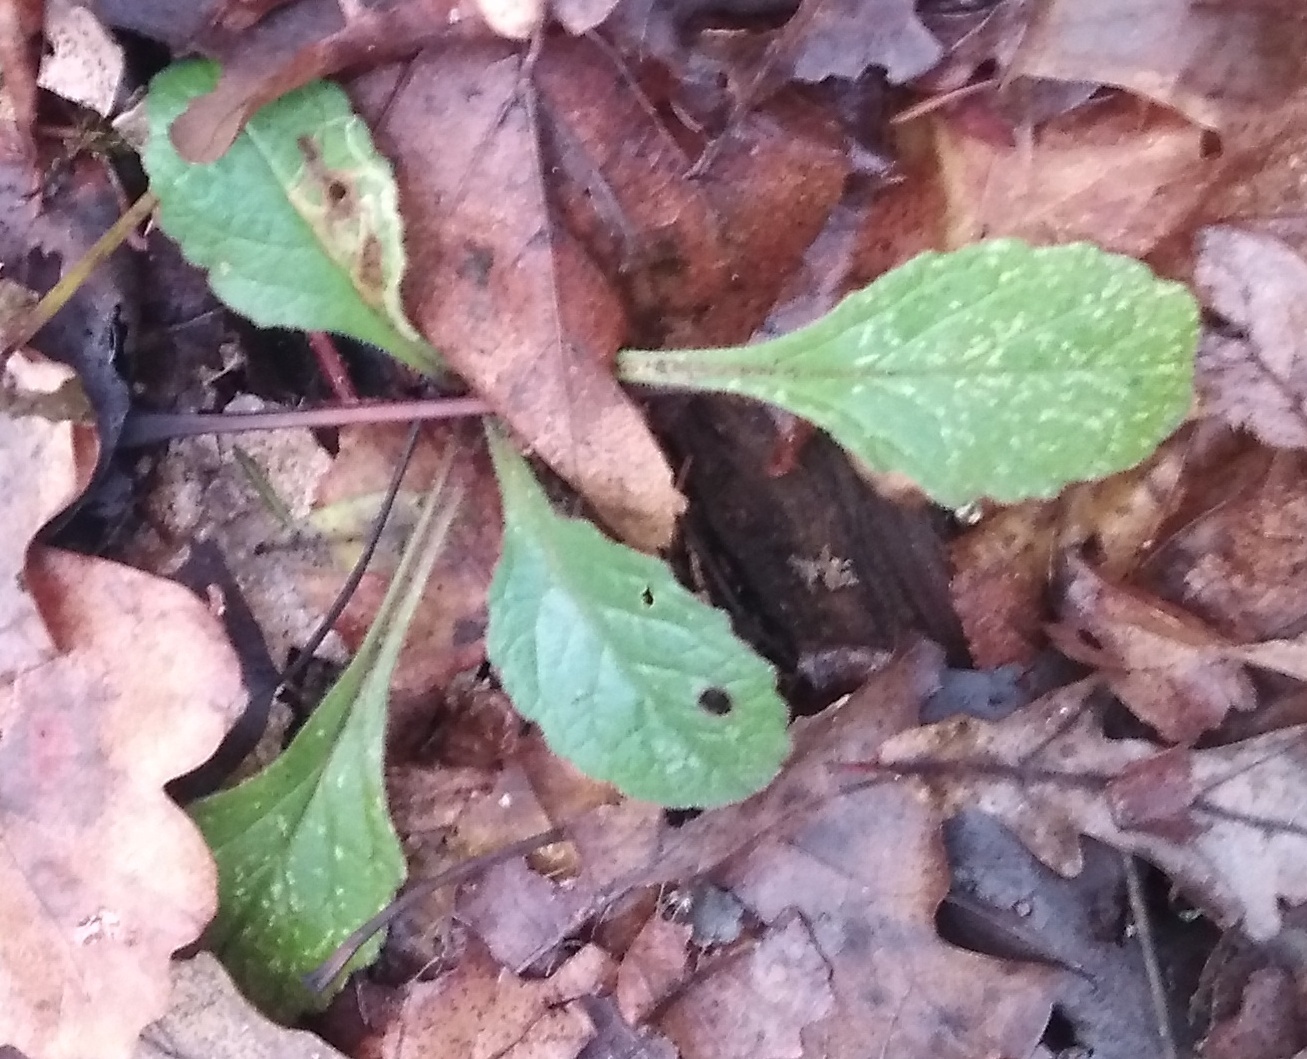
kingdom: Plantae
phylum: Tracheophyta
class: Magnoliopsida
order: Lamiales
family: Lamiaceae
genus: Ajuga
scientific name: Ajuga reptans
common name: Bugle
